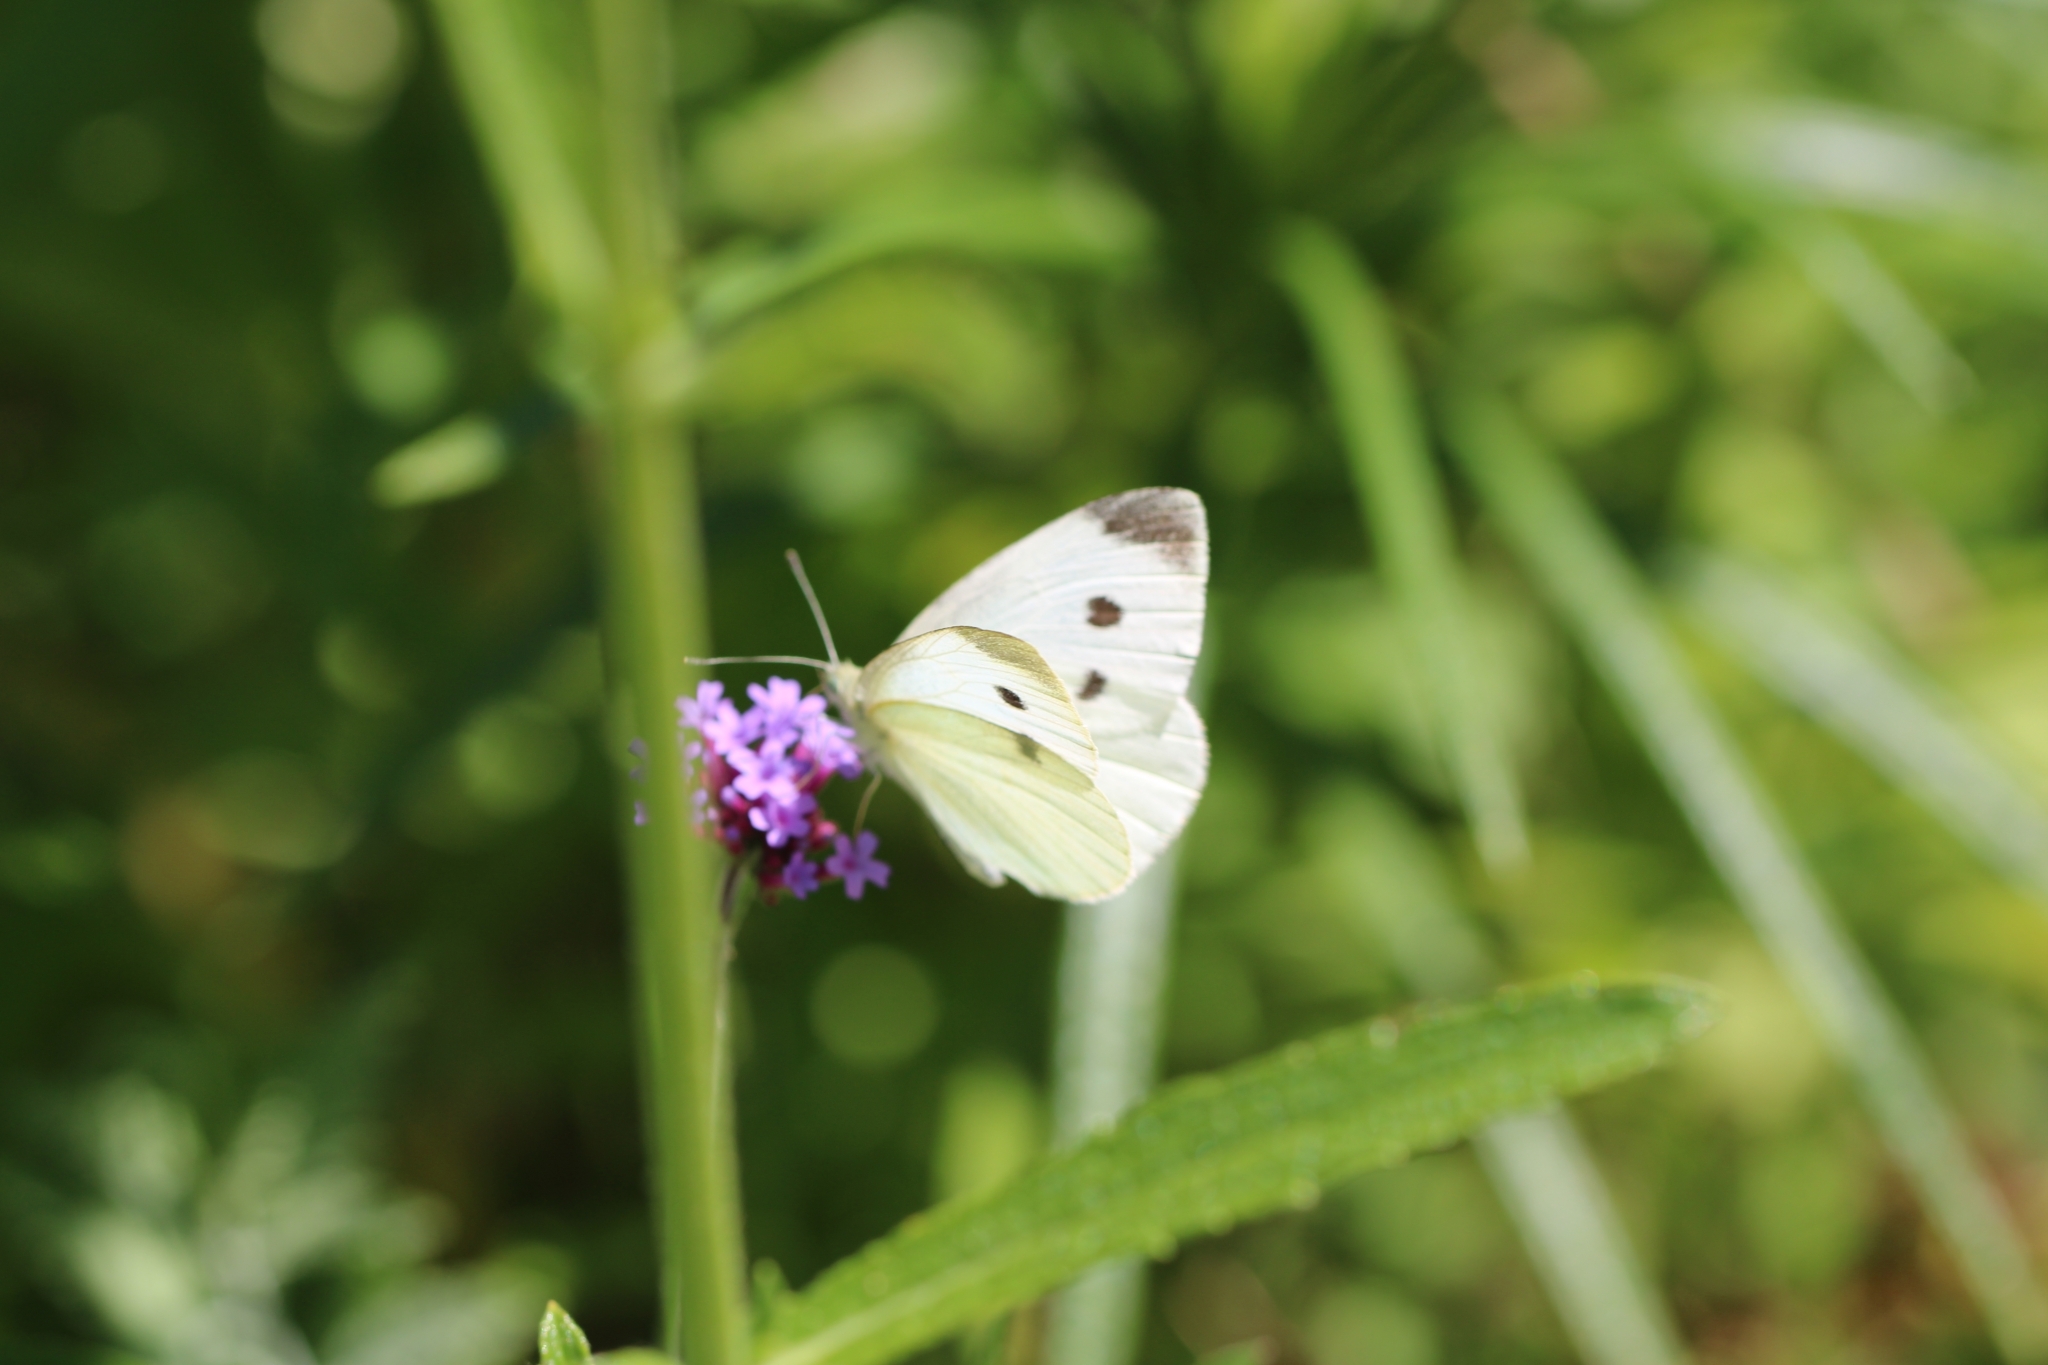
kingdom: Animalia
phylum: Arthropoda
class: Insecta
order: Lepidoptera
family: Pieridae
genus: Pieris
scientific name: Pieris rapae
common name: Small white
